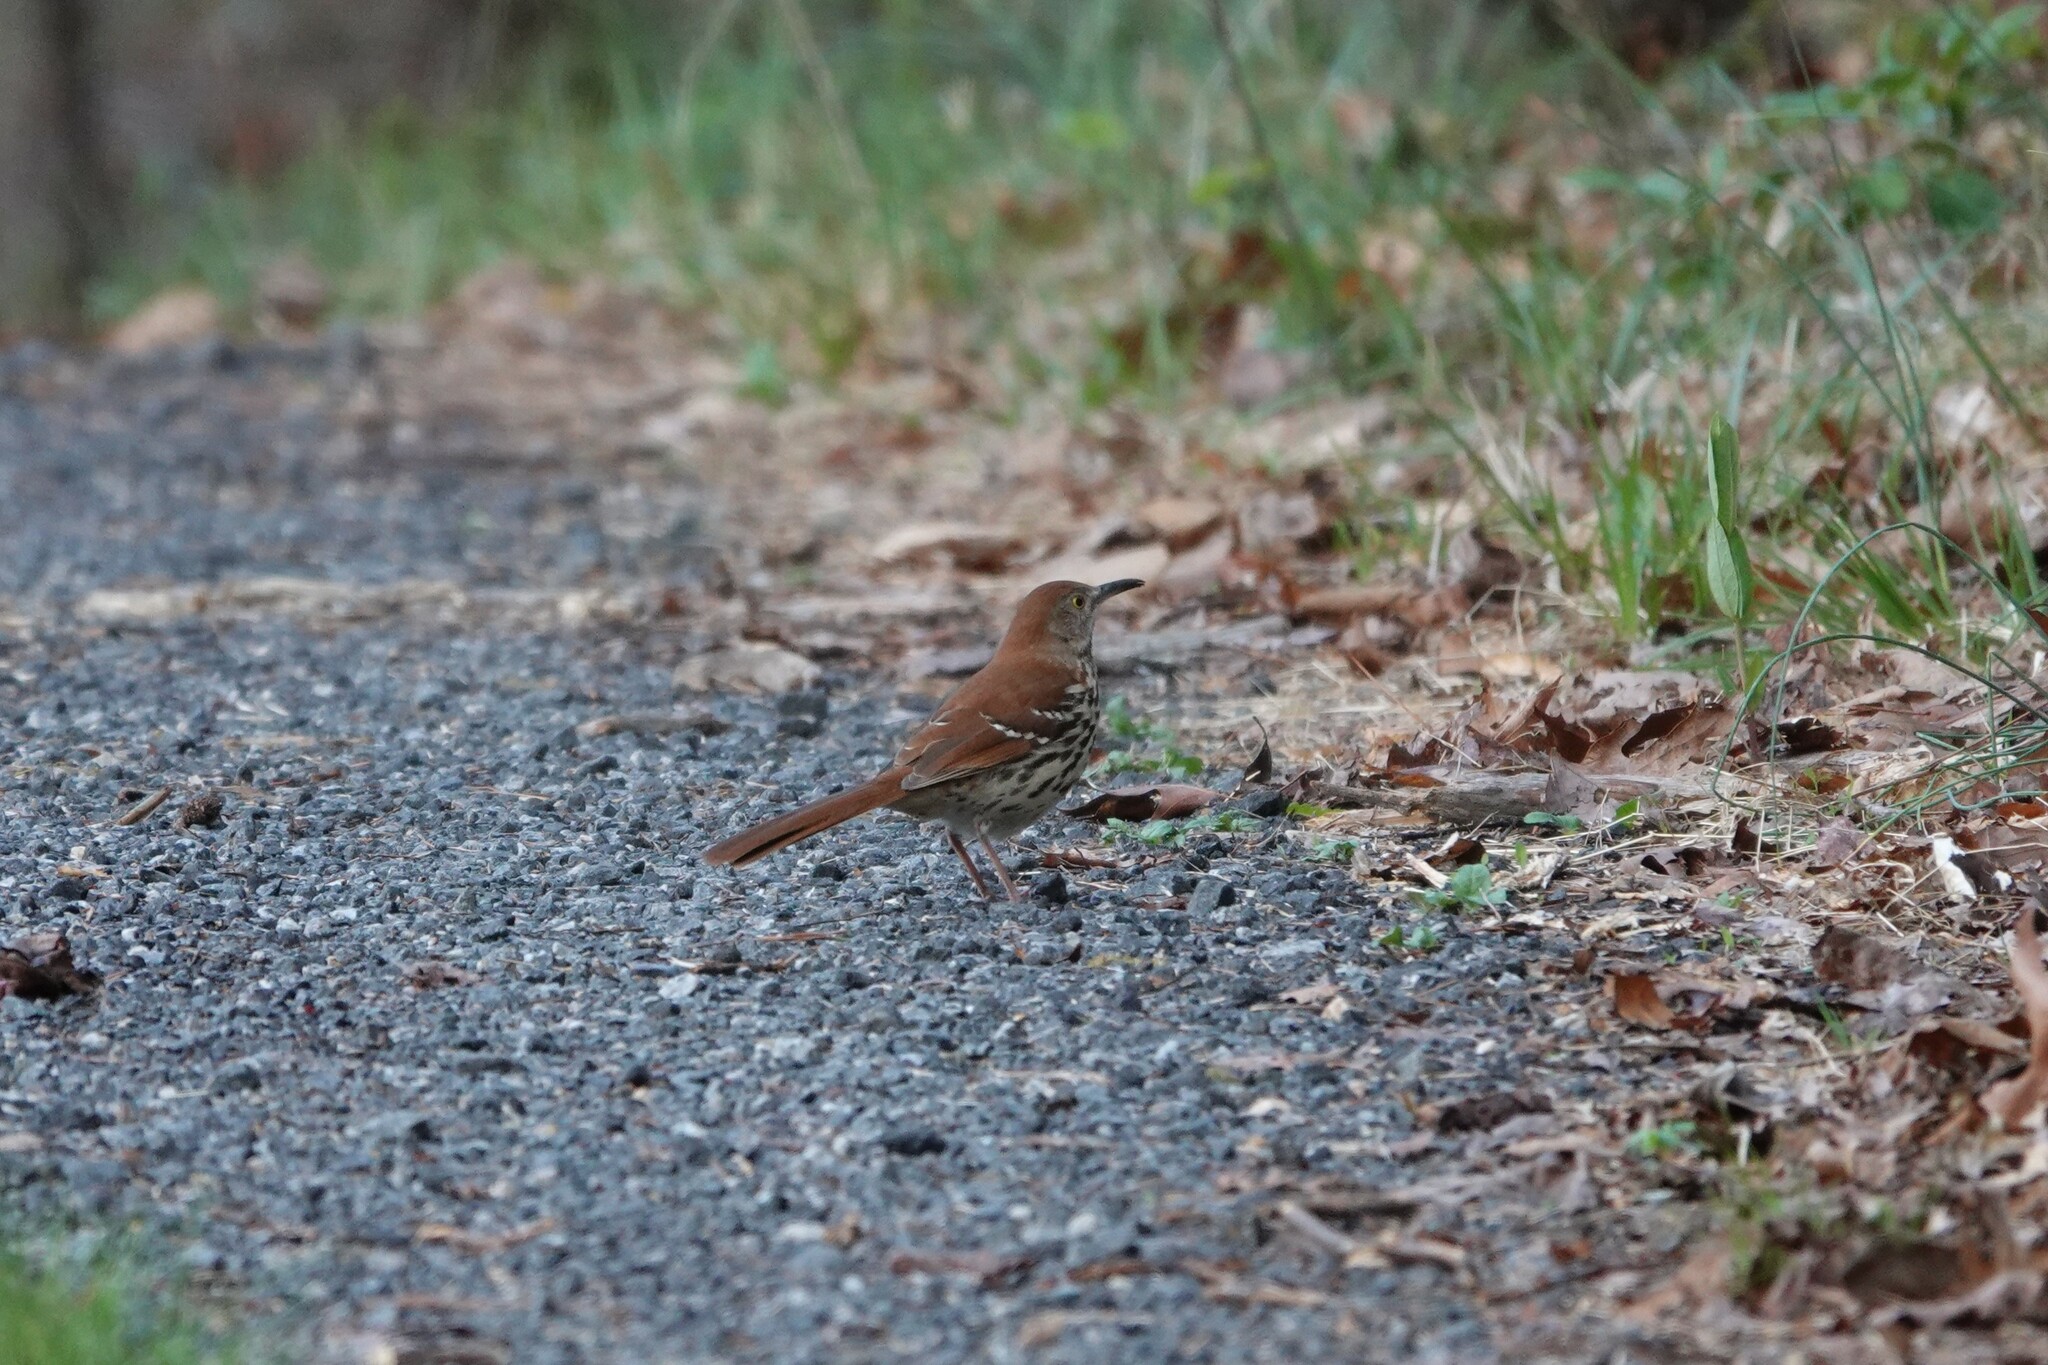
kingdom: Animalia
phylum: Chordata
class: Aves
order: Passeriformes
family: Mimidae
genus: Toxostoma
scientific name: Toxostoma rufum
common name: Brown thrasher
